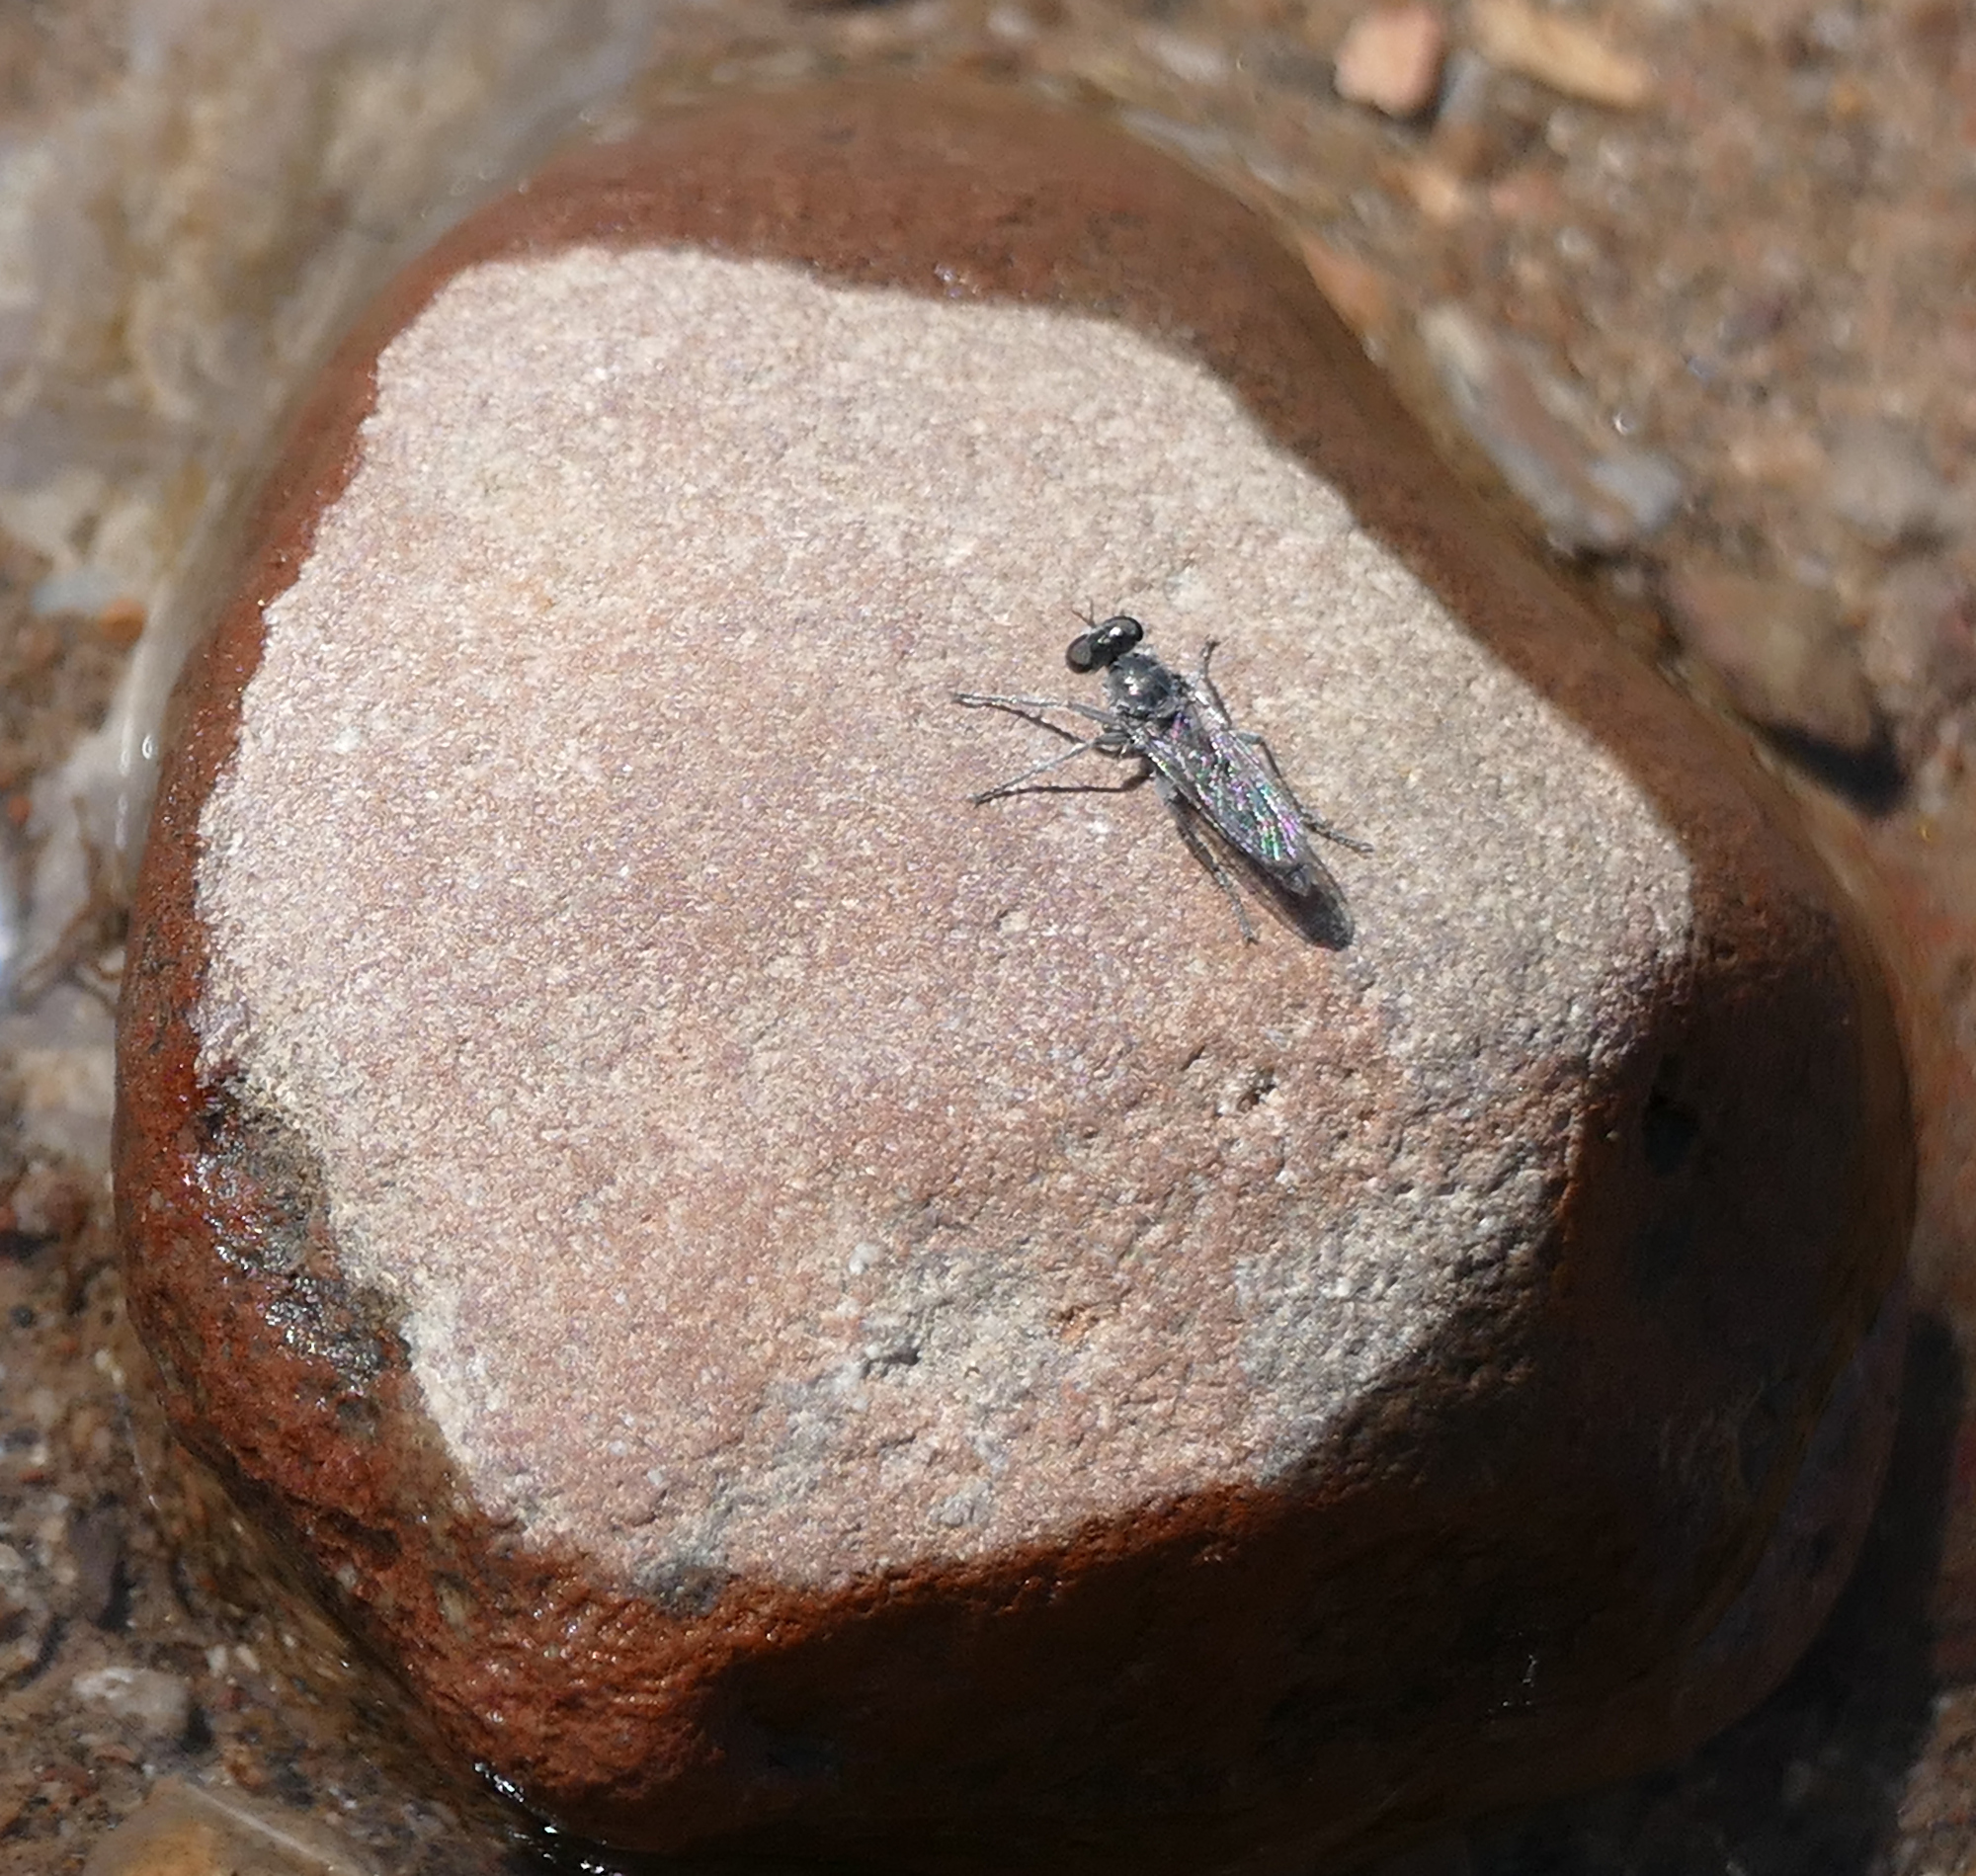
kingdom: Animalia
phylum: Arthropoda
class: Insecta
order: Diptera
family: Asilidae
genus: Stichopogon
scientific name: Stichopogon catulus
